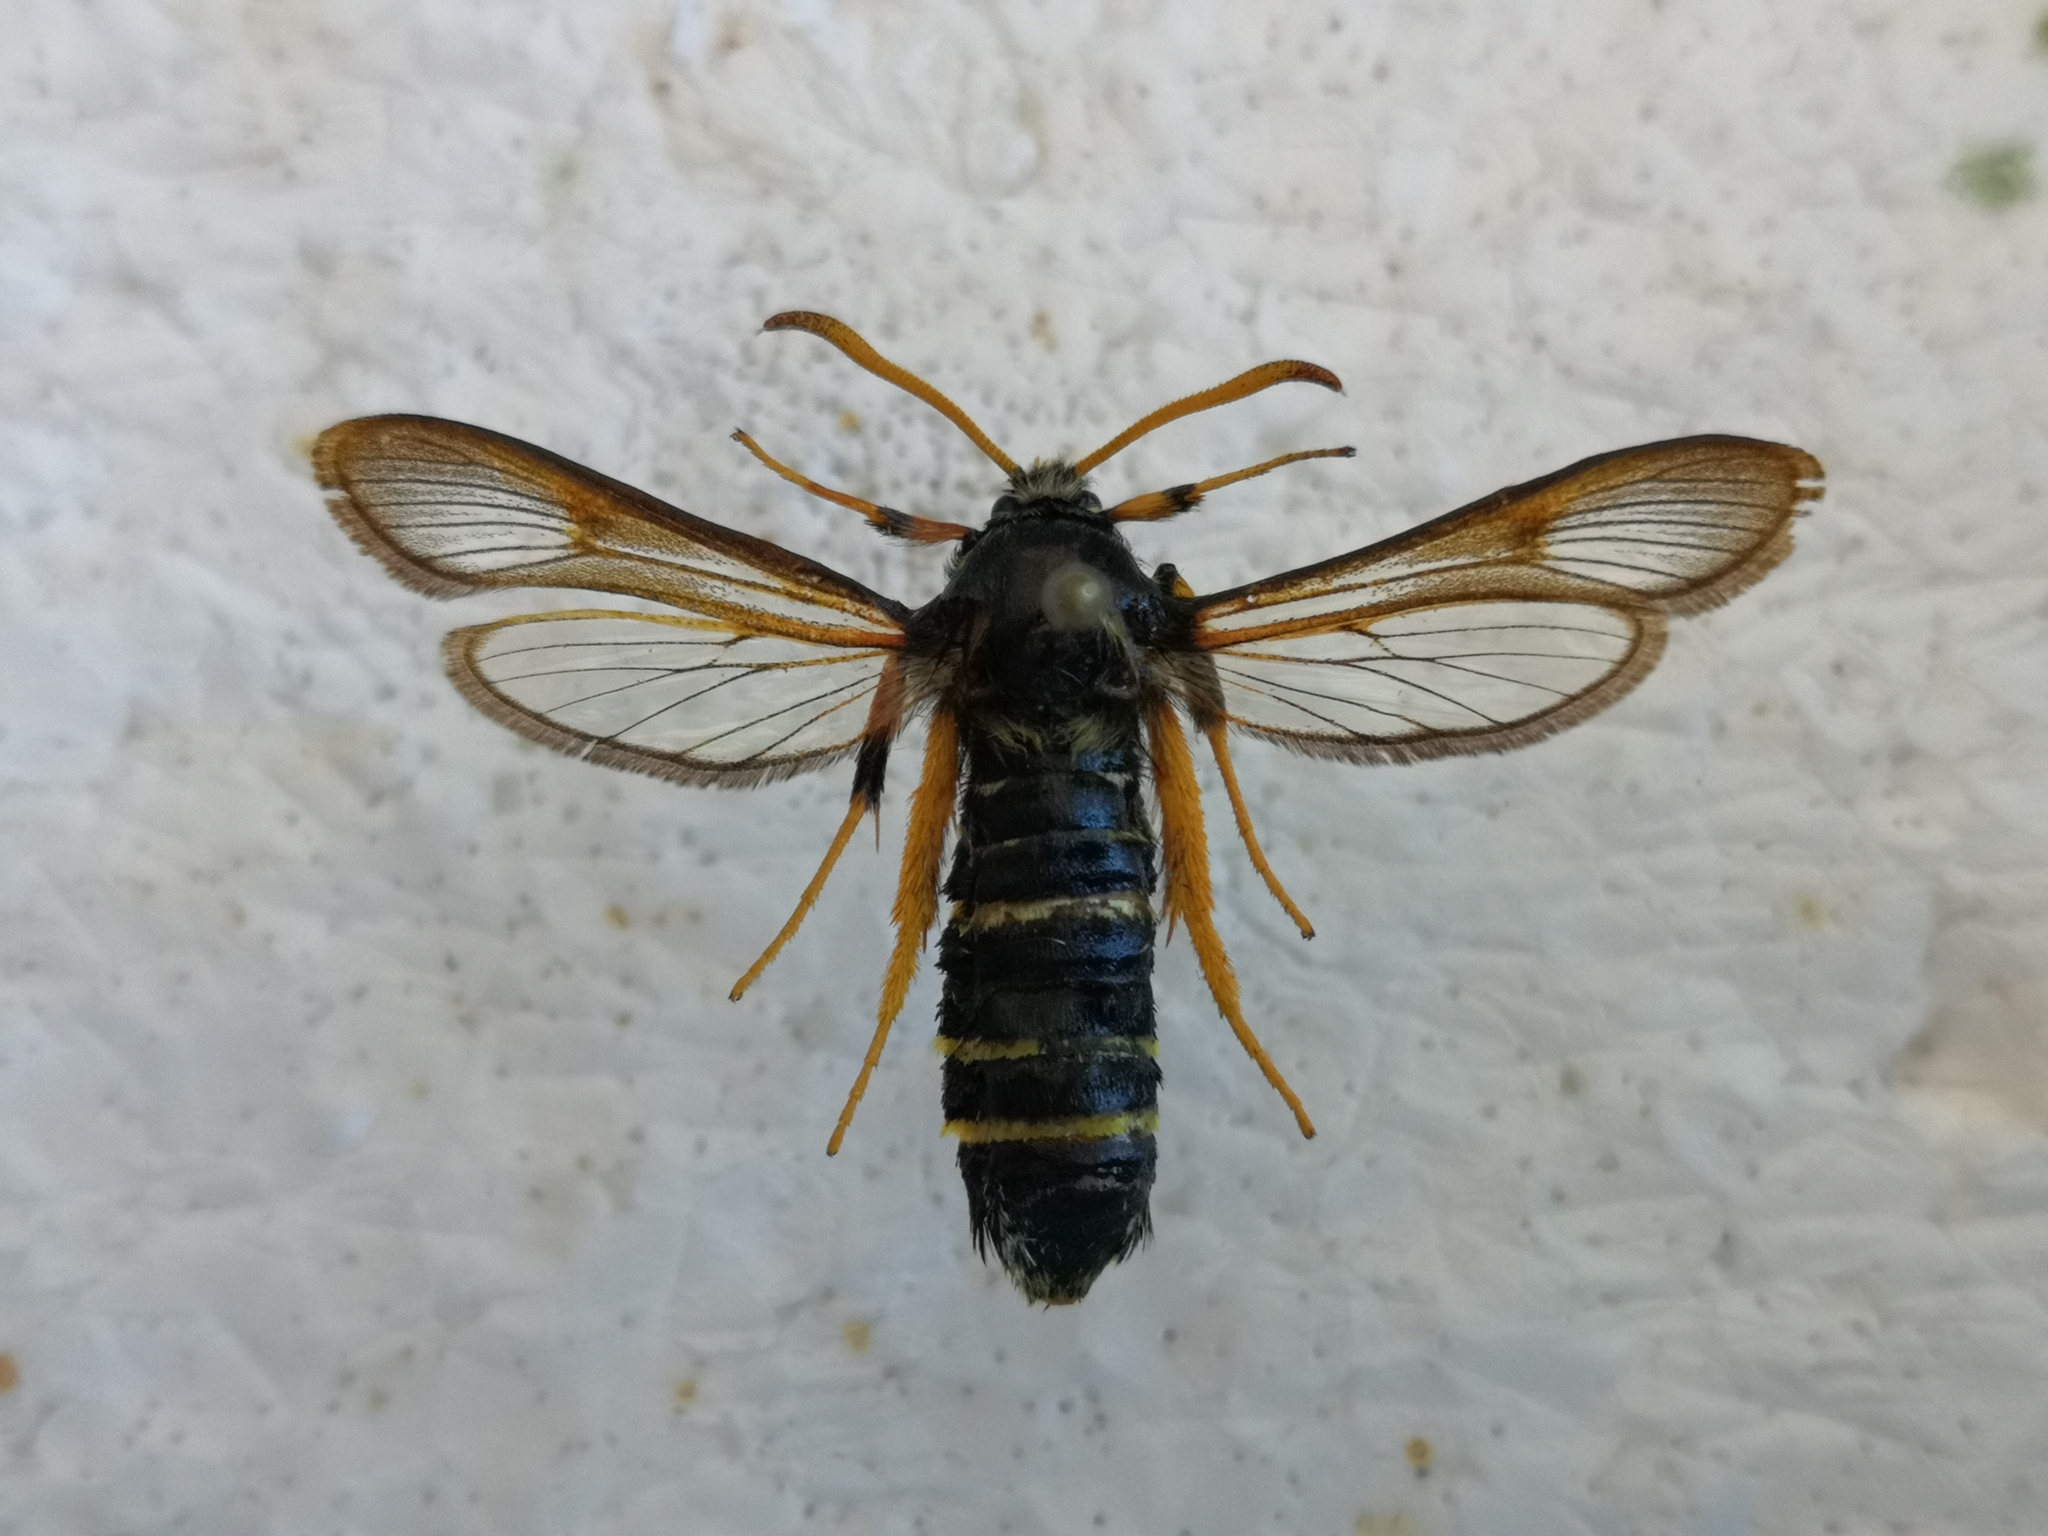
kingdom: Animalia
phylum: Arthropoda
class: Insecta
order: Lepidoptera
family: Sesiidae
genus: Eusphecia
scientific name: Eusphecia melanocephala
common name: Aspen clearwing
